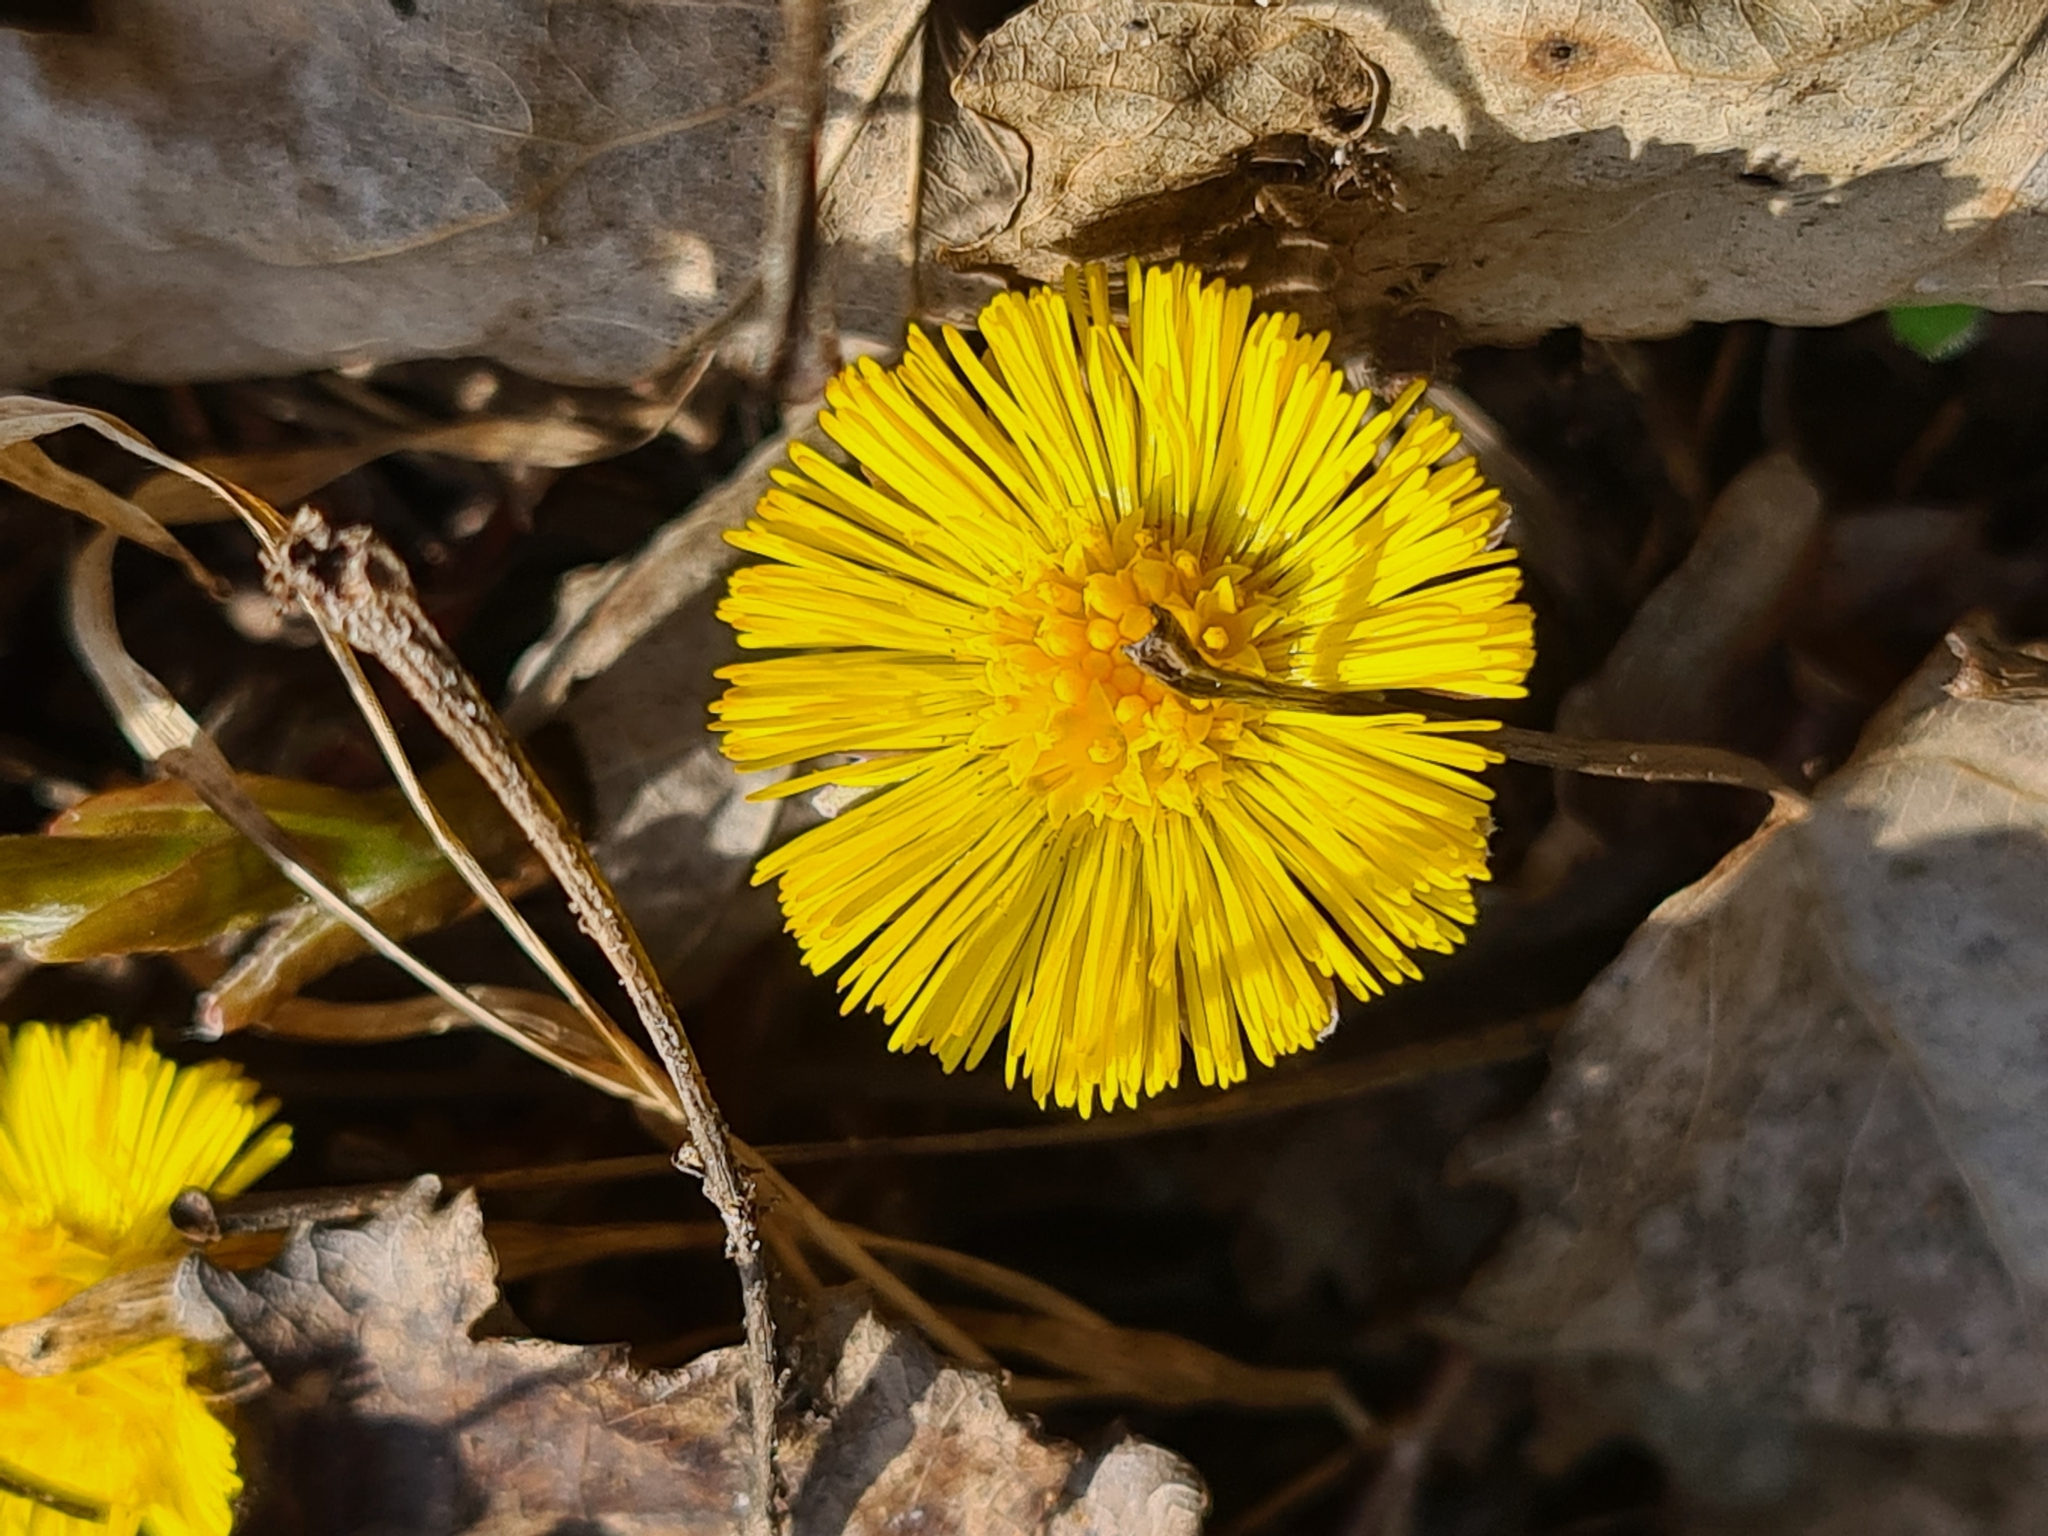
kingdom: Plantae
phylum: Tracheophyta
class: Magnoliopsida
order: Asterales
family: Asteraceae
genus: Tussilago
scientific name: Tussilago farfara
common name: Coltsfoot
